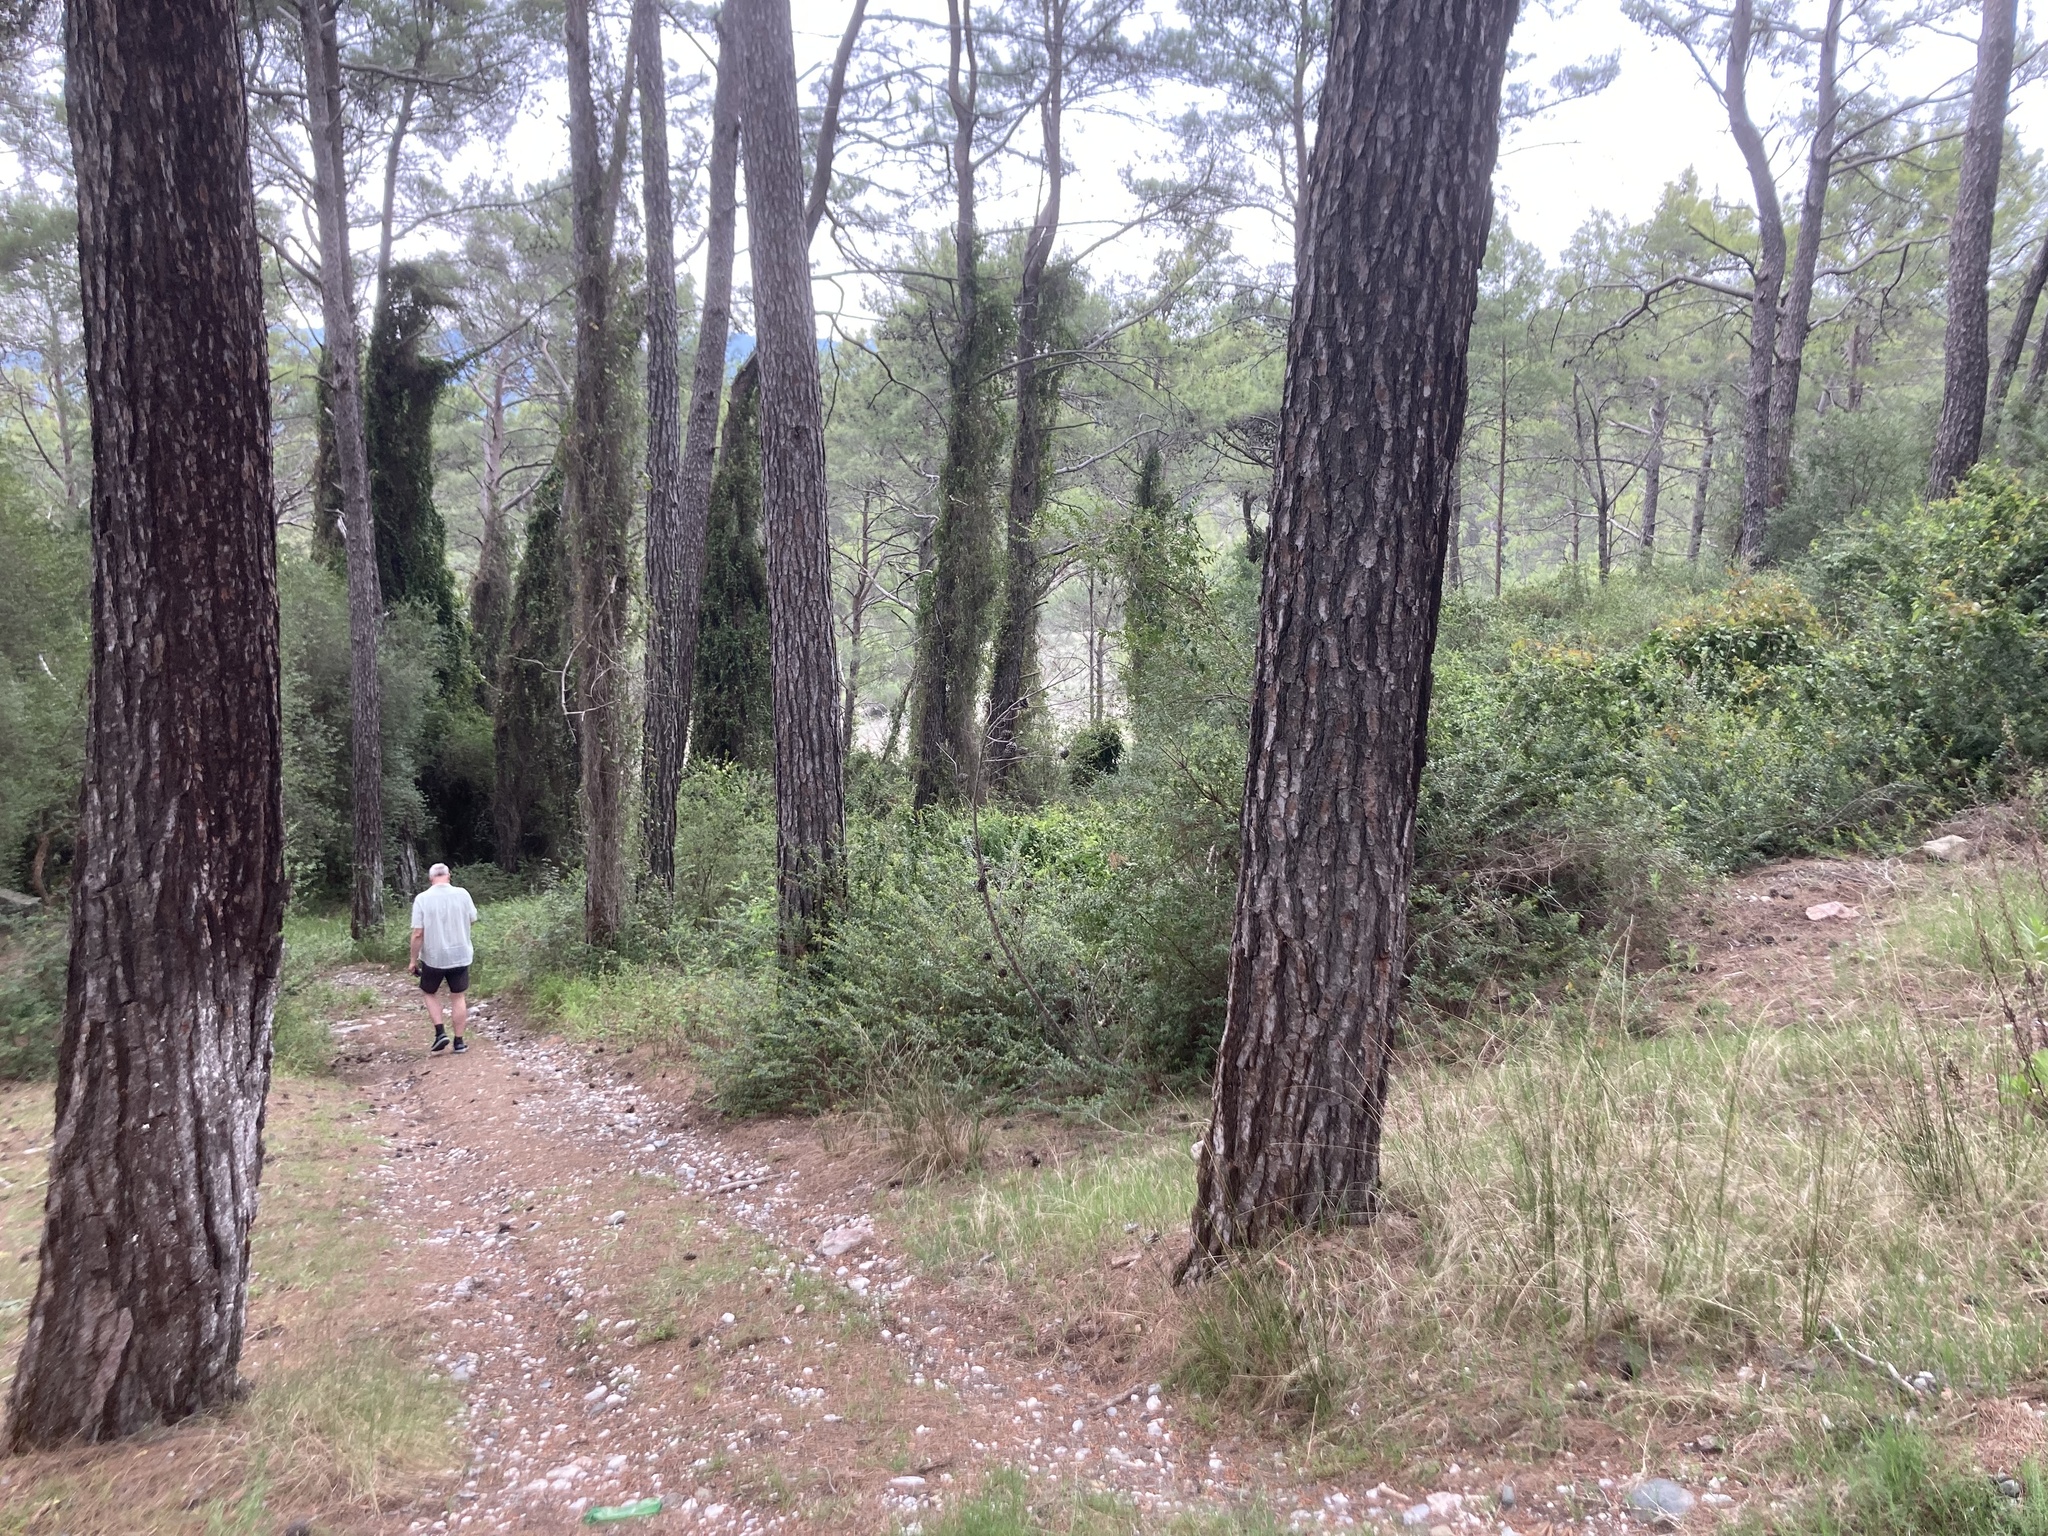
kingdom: Plantae
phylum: Tracheophyta
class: Pinopsida
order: Pinales
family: Pinaceae
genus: Pinus
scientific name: Pinus brutia
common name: Turkish pine
